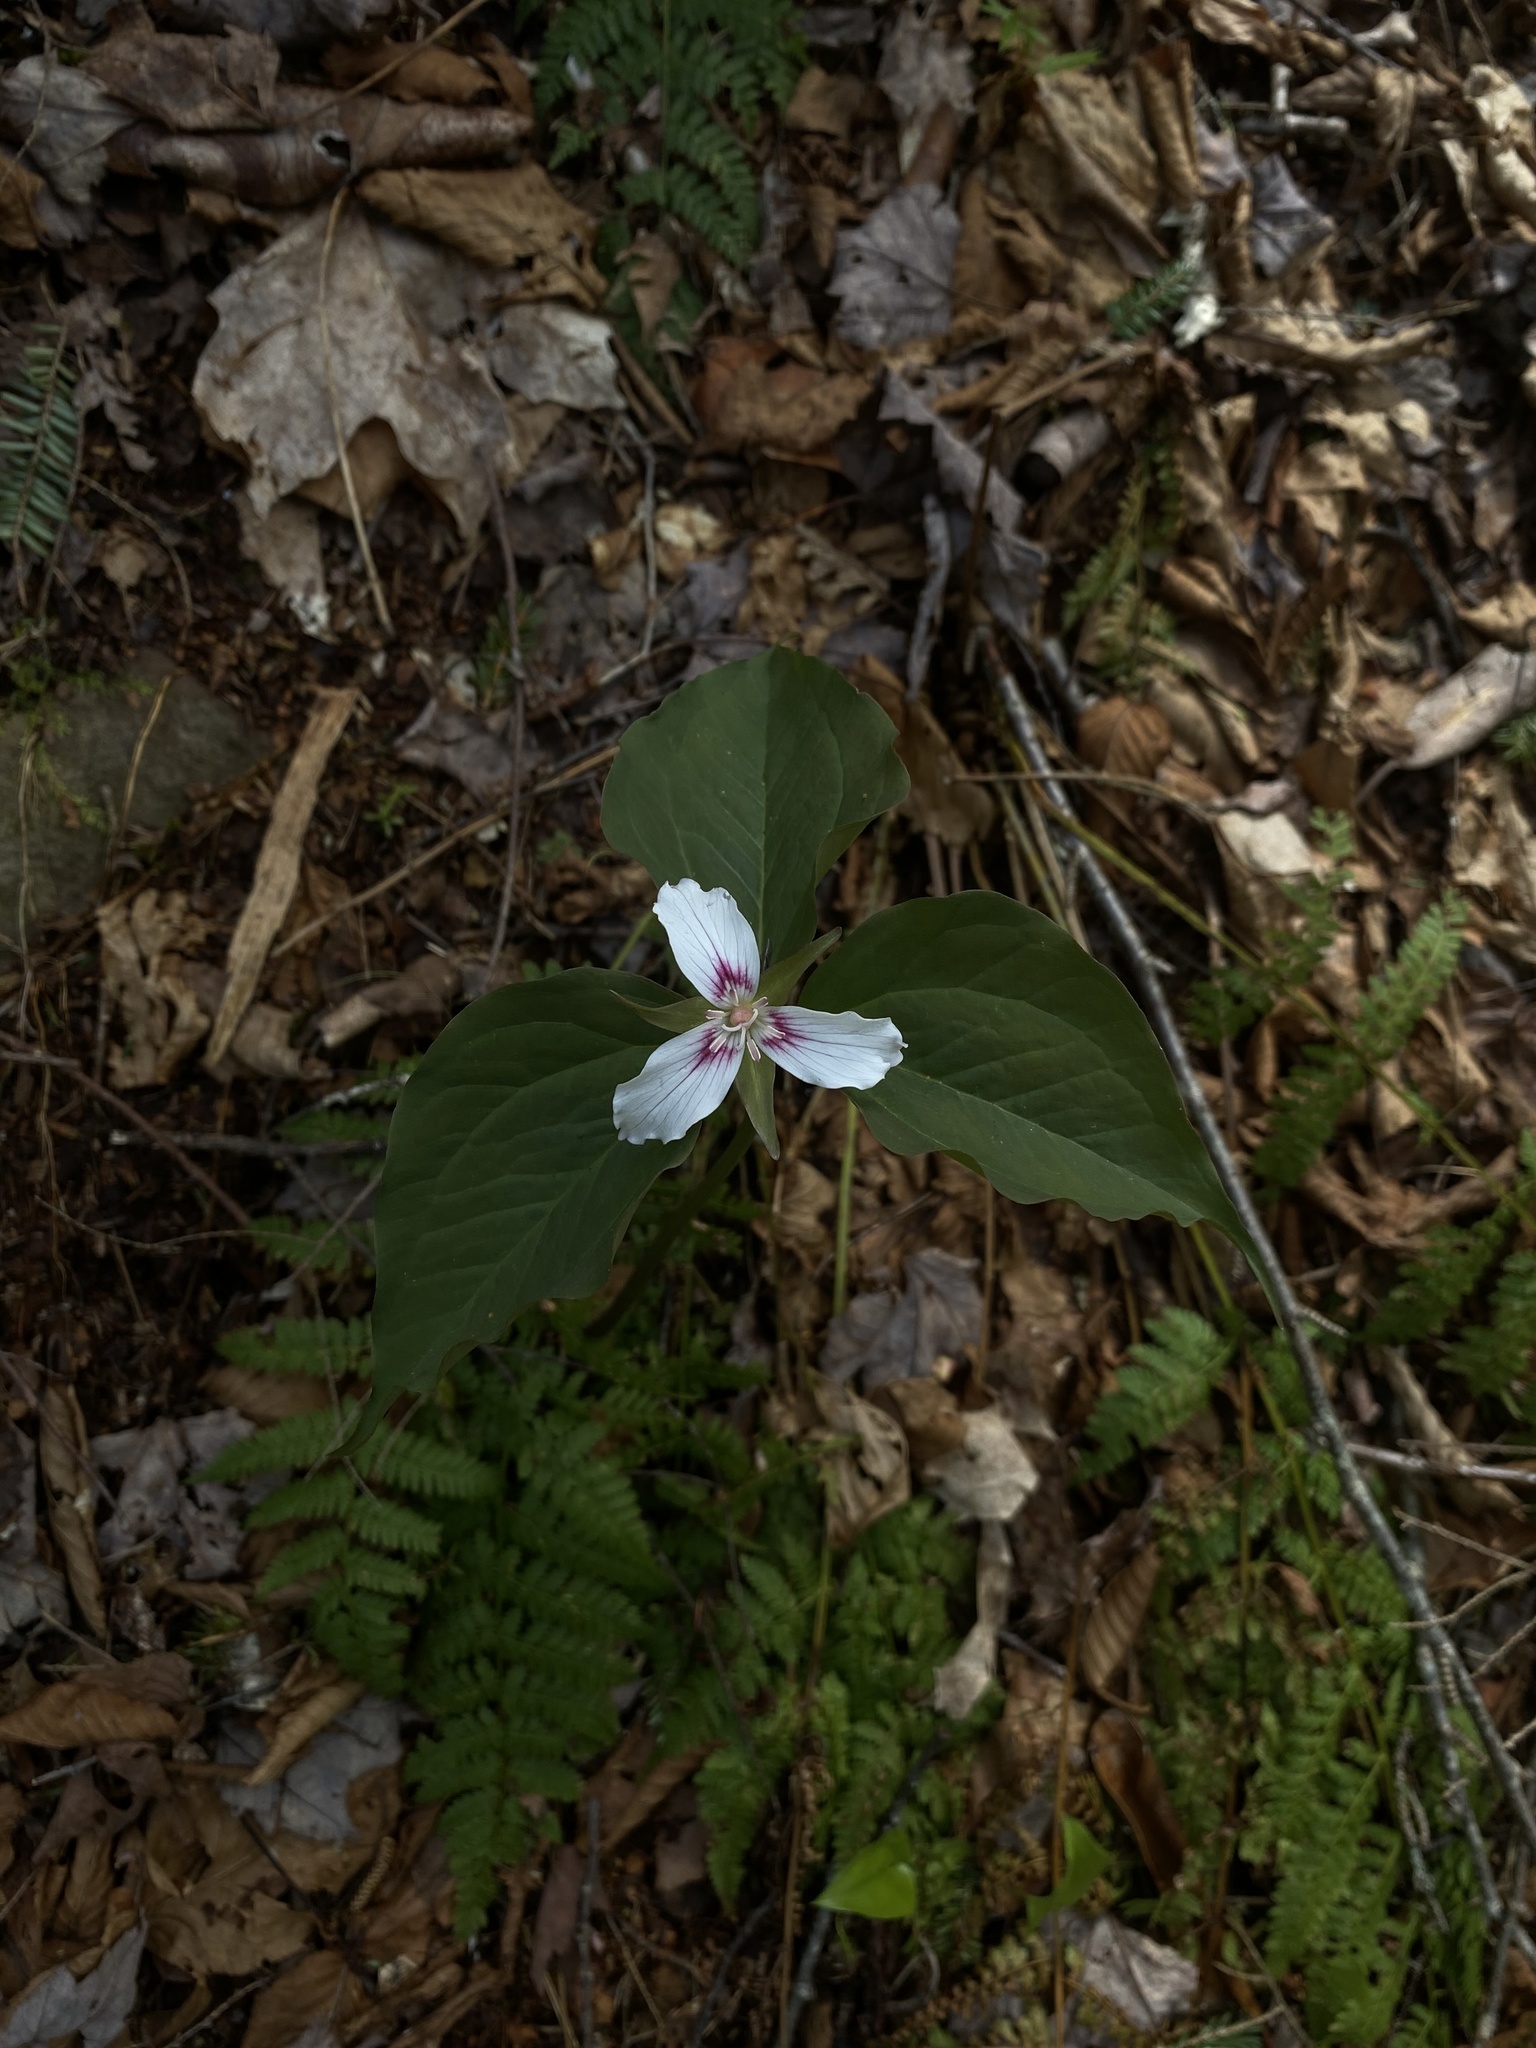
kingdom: Plantae
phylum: Tracheophyta
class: Liliopsida
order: Liliales
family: Melanthiaceae
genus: Trillium
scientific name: Trillium undulatum
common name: Paint trillium
